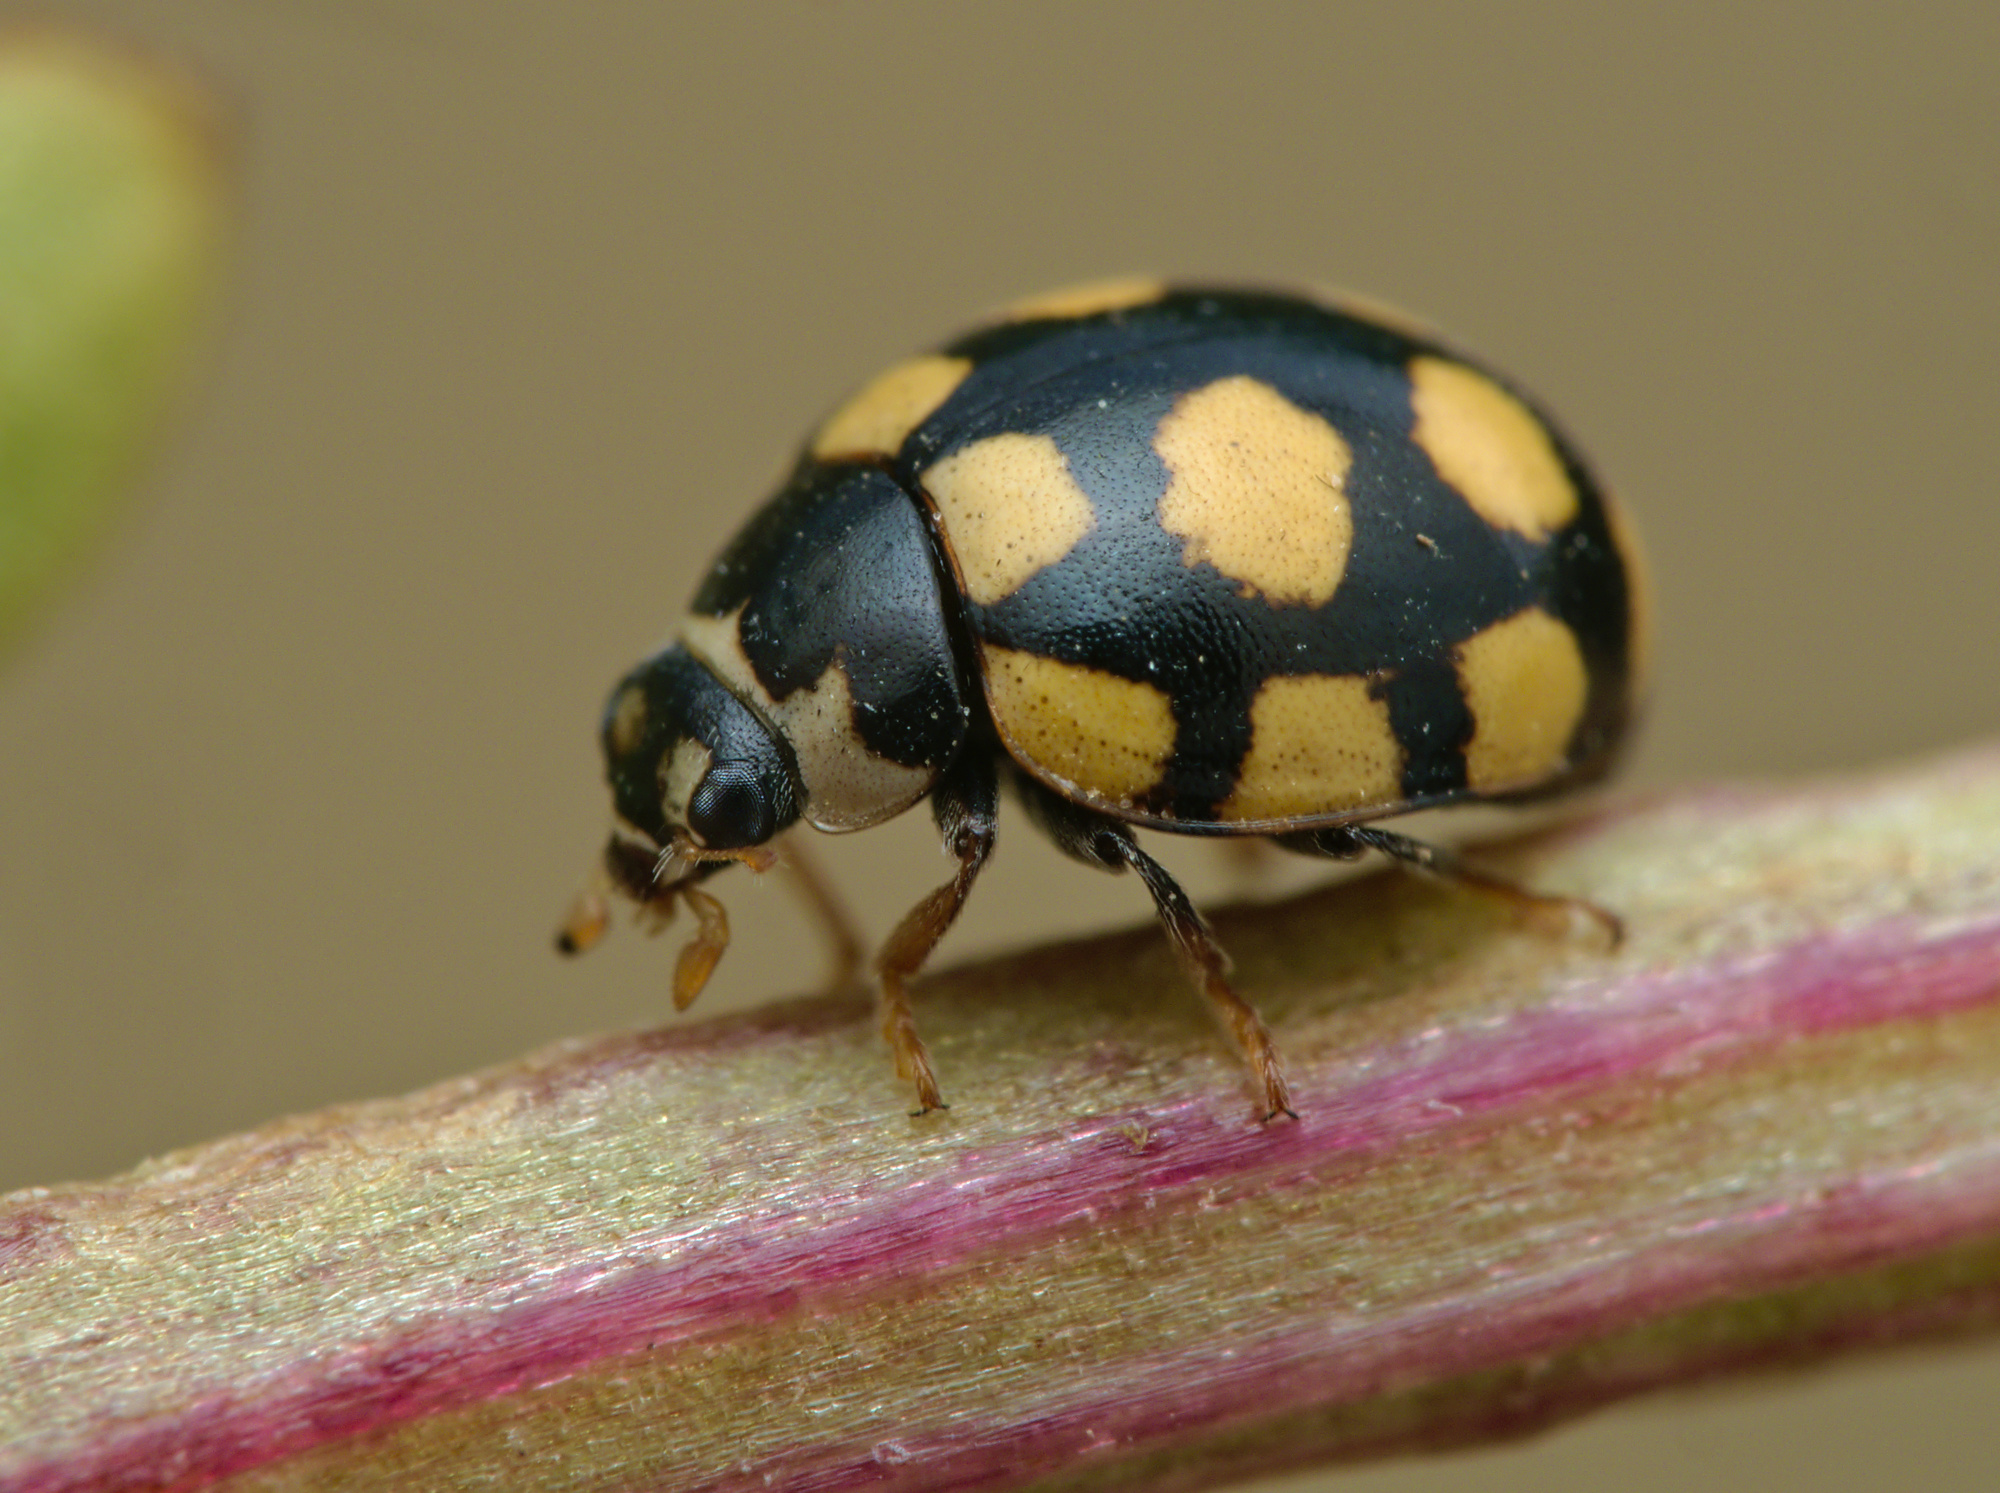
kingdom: Animalia
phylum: Arthropoda
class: Insecta
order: Coleoptera
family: Coccinellidae
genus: Coccinula
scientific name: Coccinula quatuordecimpustulata
